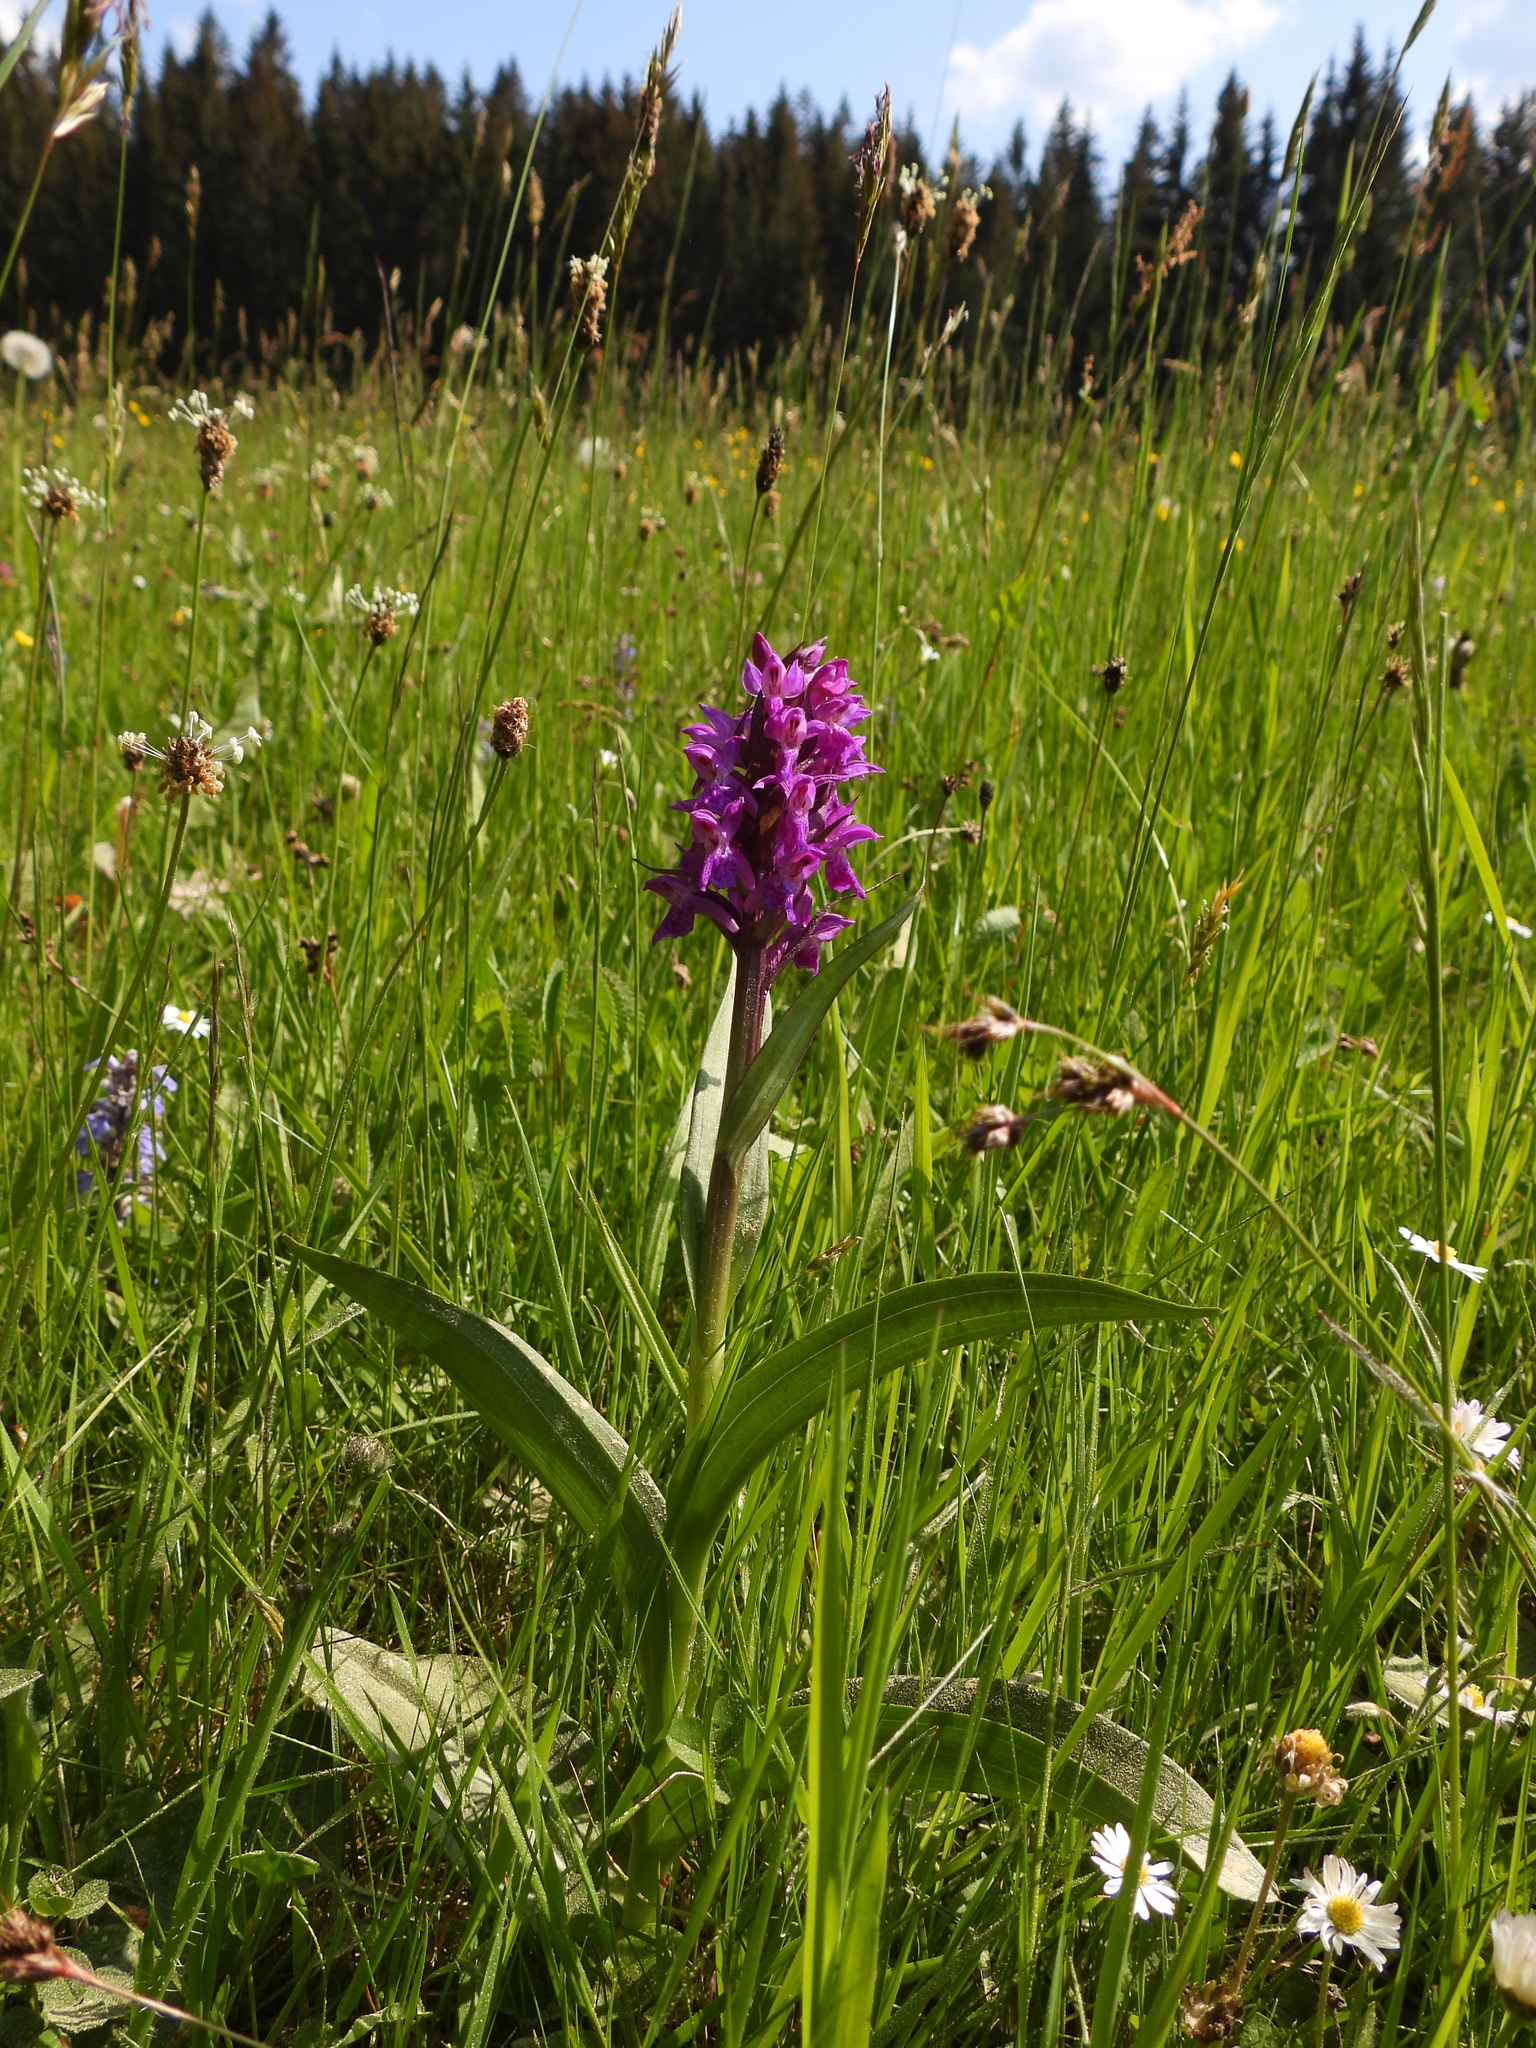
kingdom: Plantae
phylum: Tracheophyta
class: Liliopsida
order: Asparagales
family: Orchidaceae
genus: Dactylorhiza
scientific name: Dactylorhiza majalis
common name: Marsh orchid
